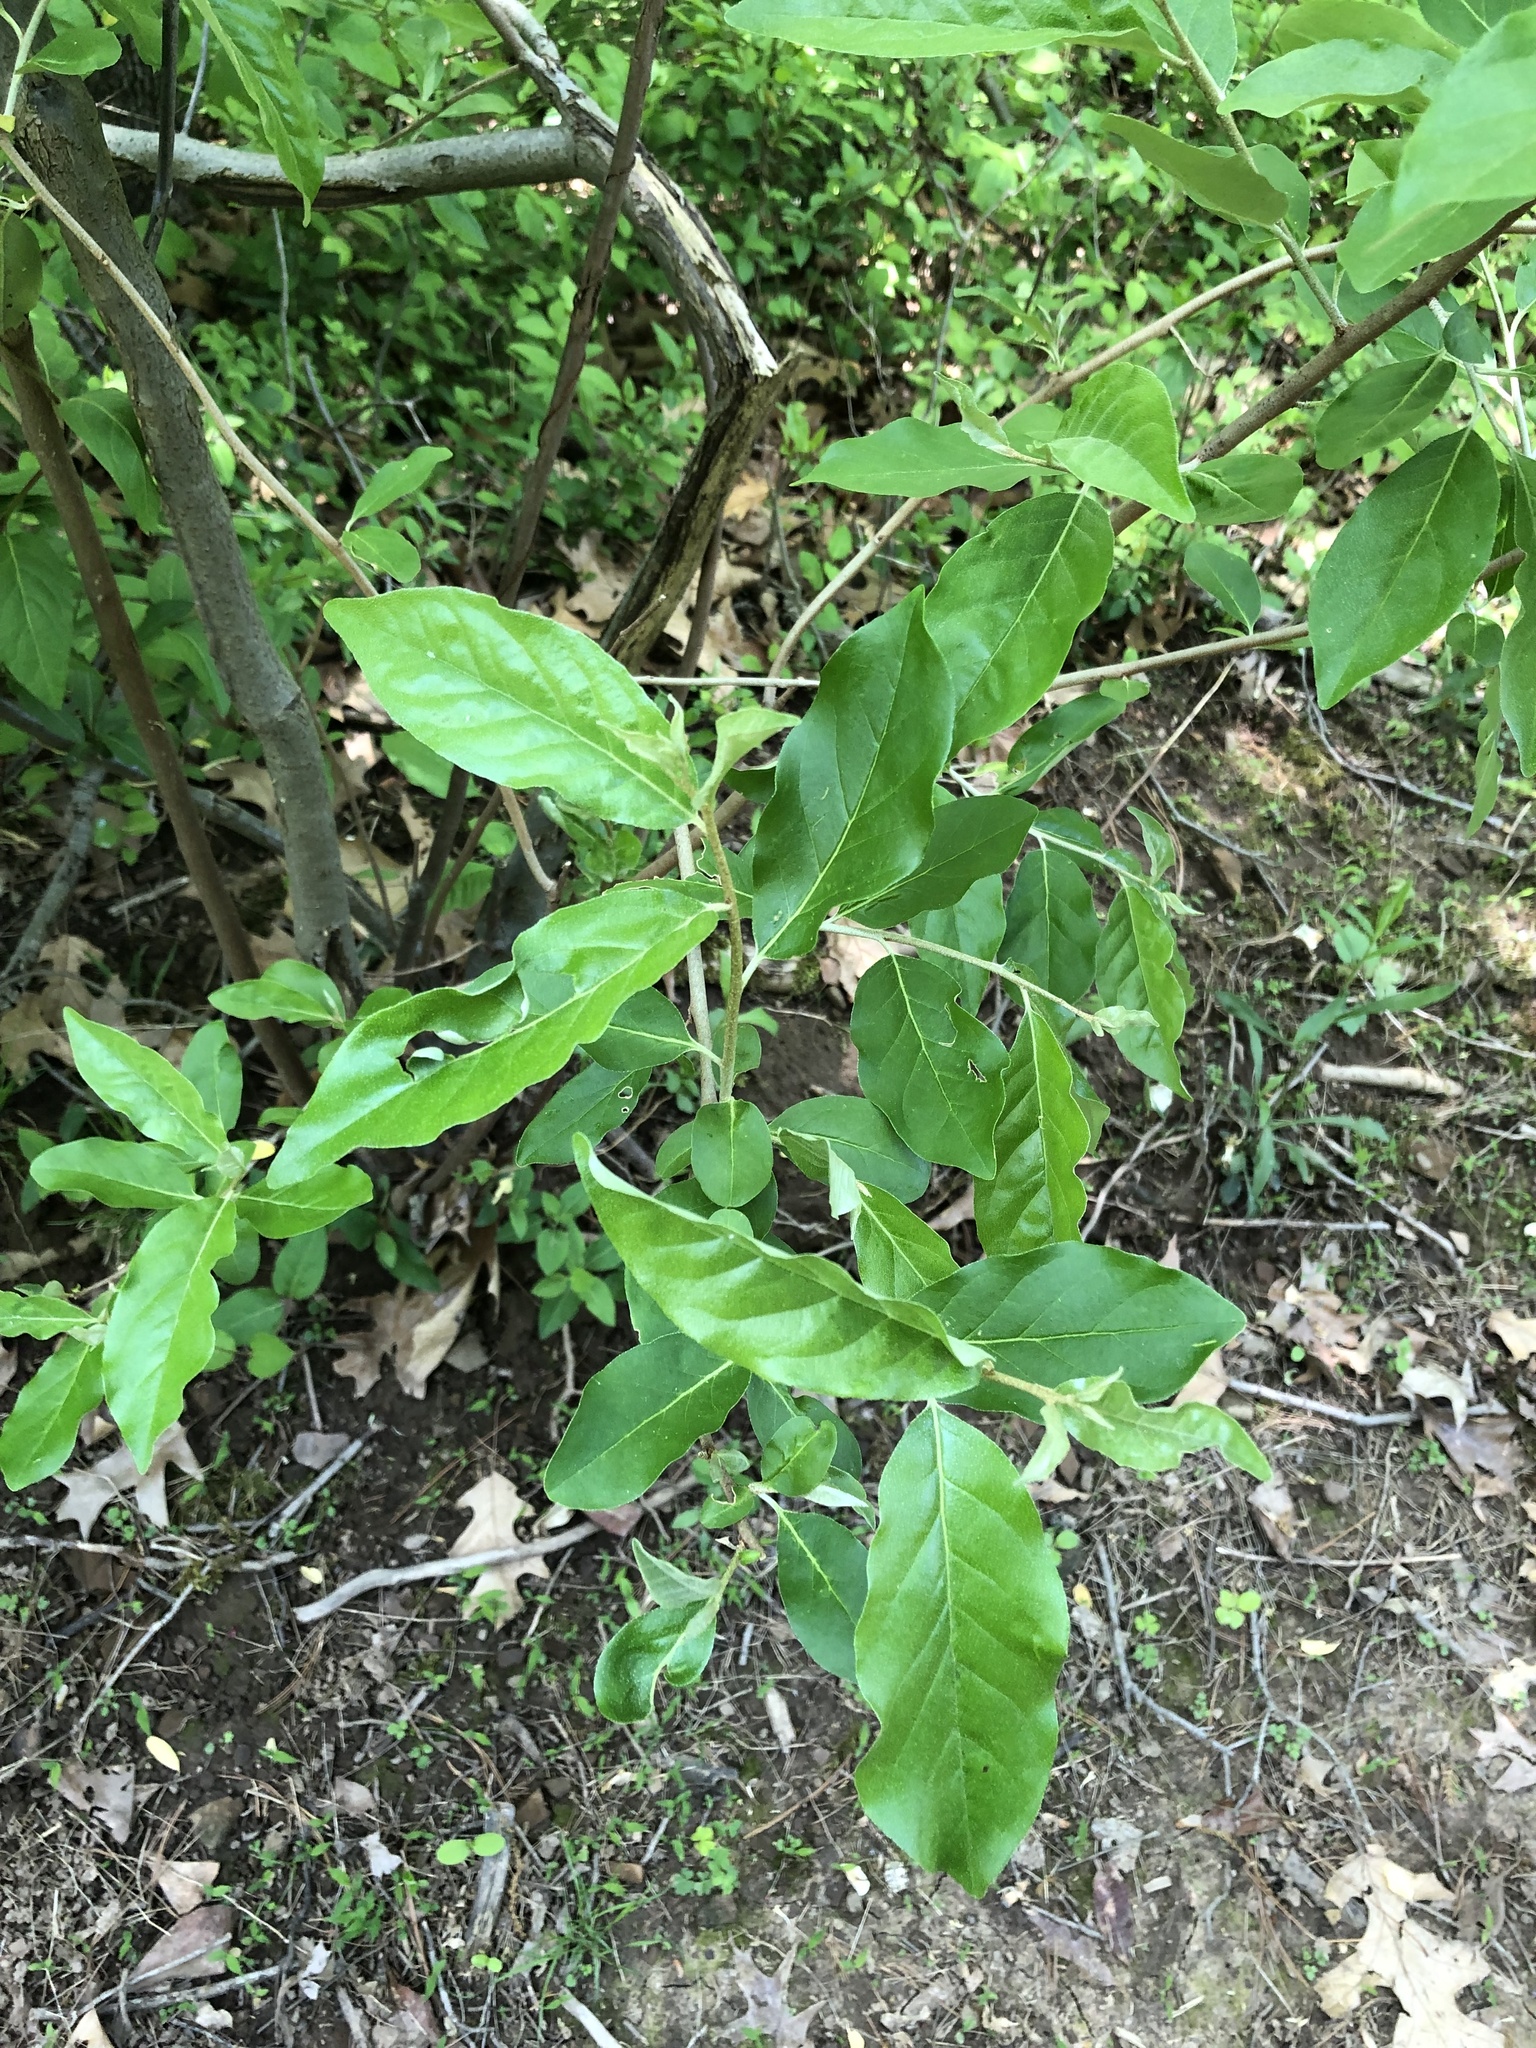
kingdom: Plantae
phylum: Tracheophyta
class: Magnoliopsida
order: Rosales
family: Elaeagnaceae
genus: Elaeagnus
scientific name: Elaeagnus umbellata
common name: Autumn olive
